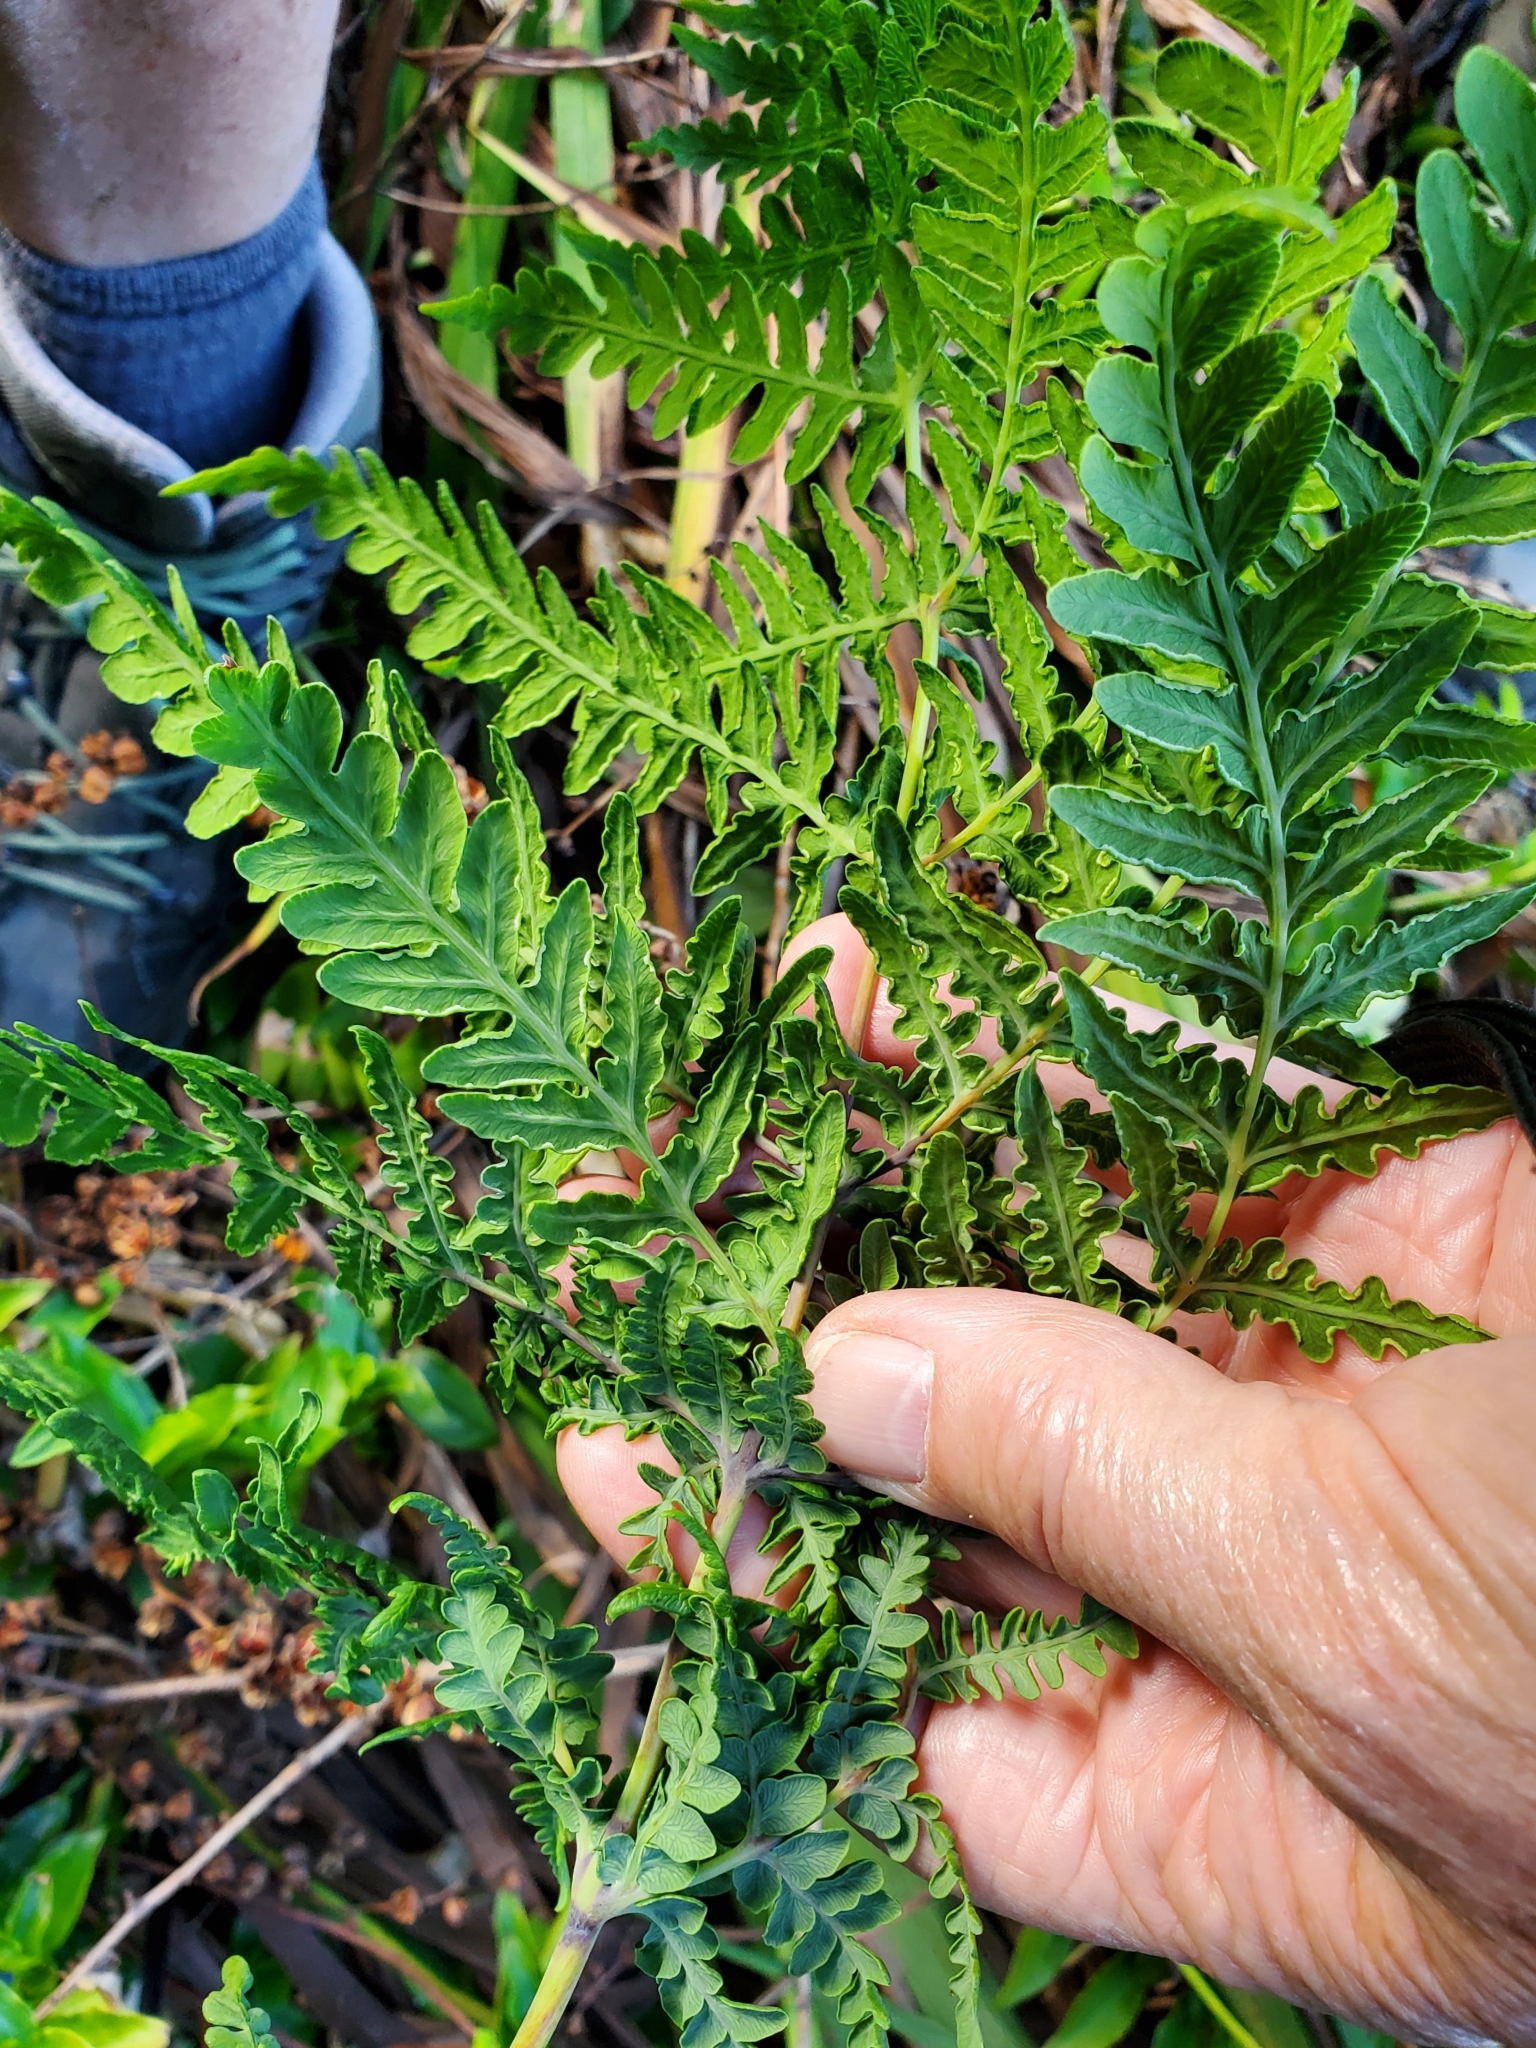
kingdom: Plantae
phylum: Tracheophyta
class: Polypodiopsida
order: Polypodiales
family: Dennstaedtiaceae
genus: Histiopteris
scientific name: Histiopteris incisa
